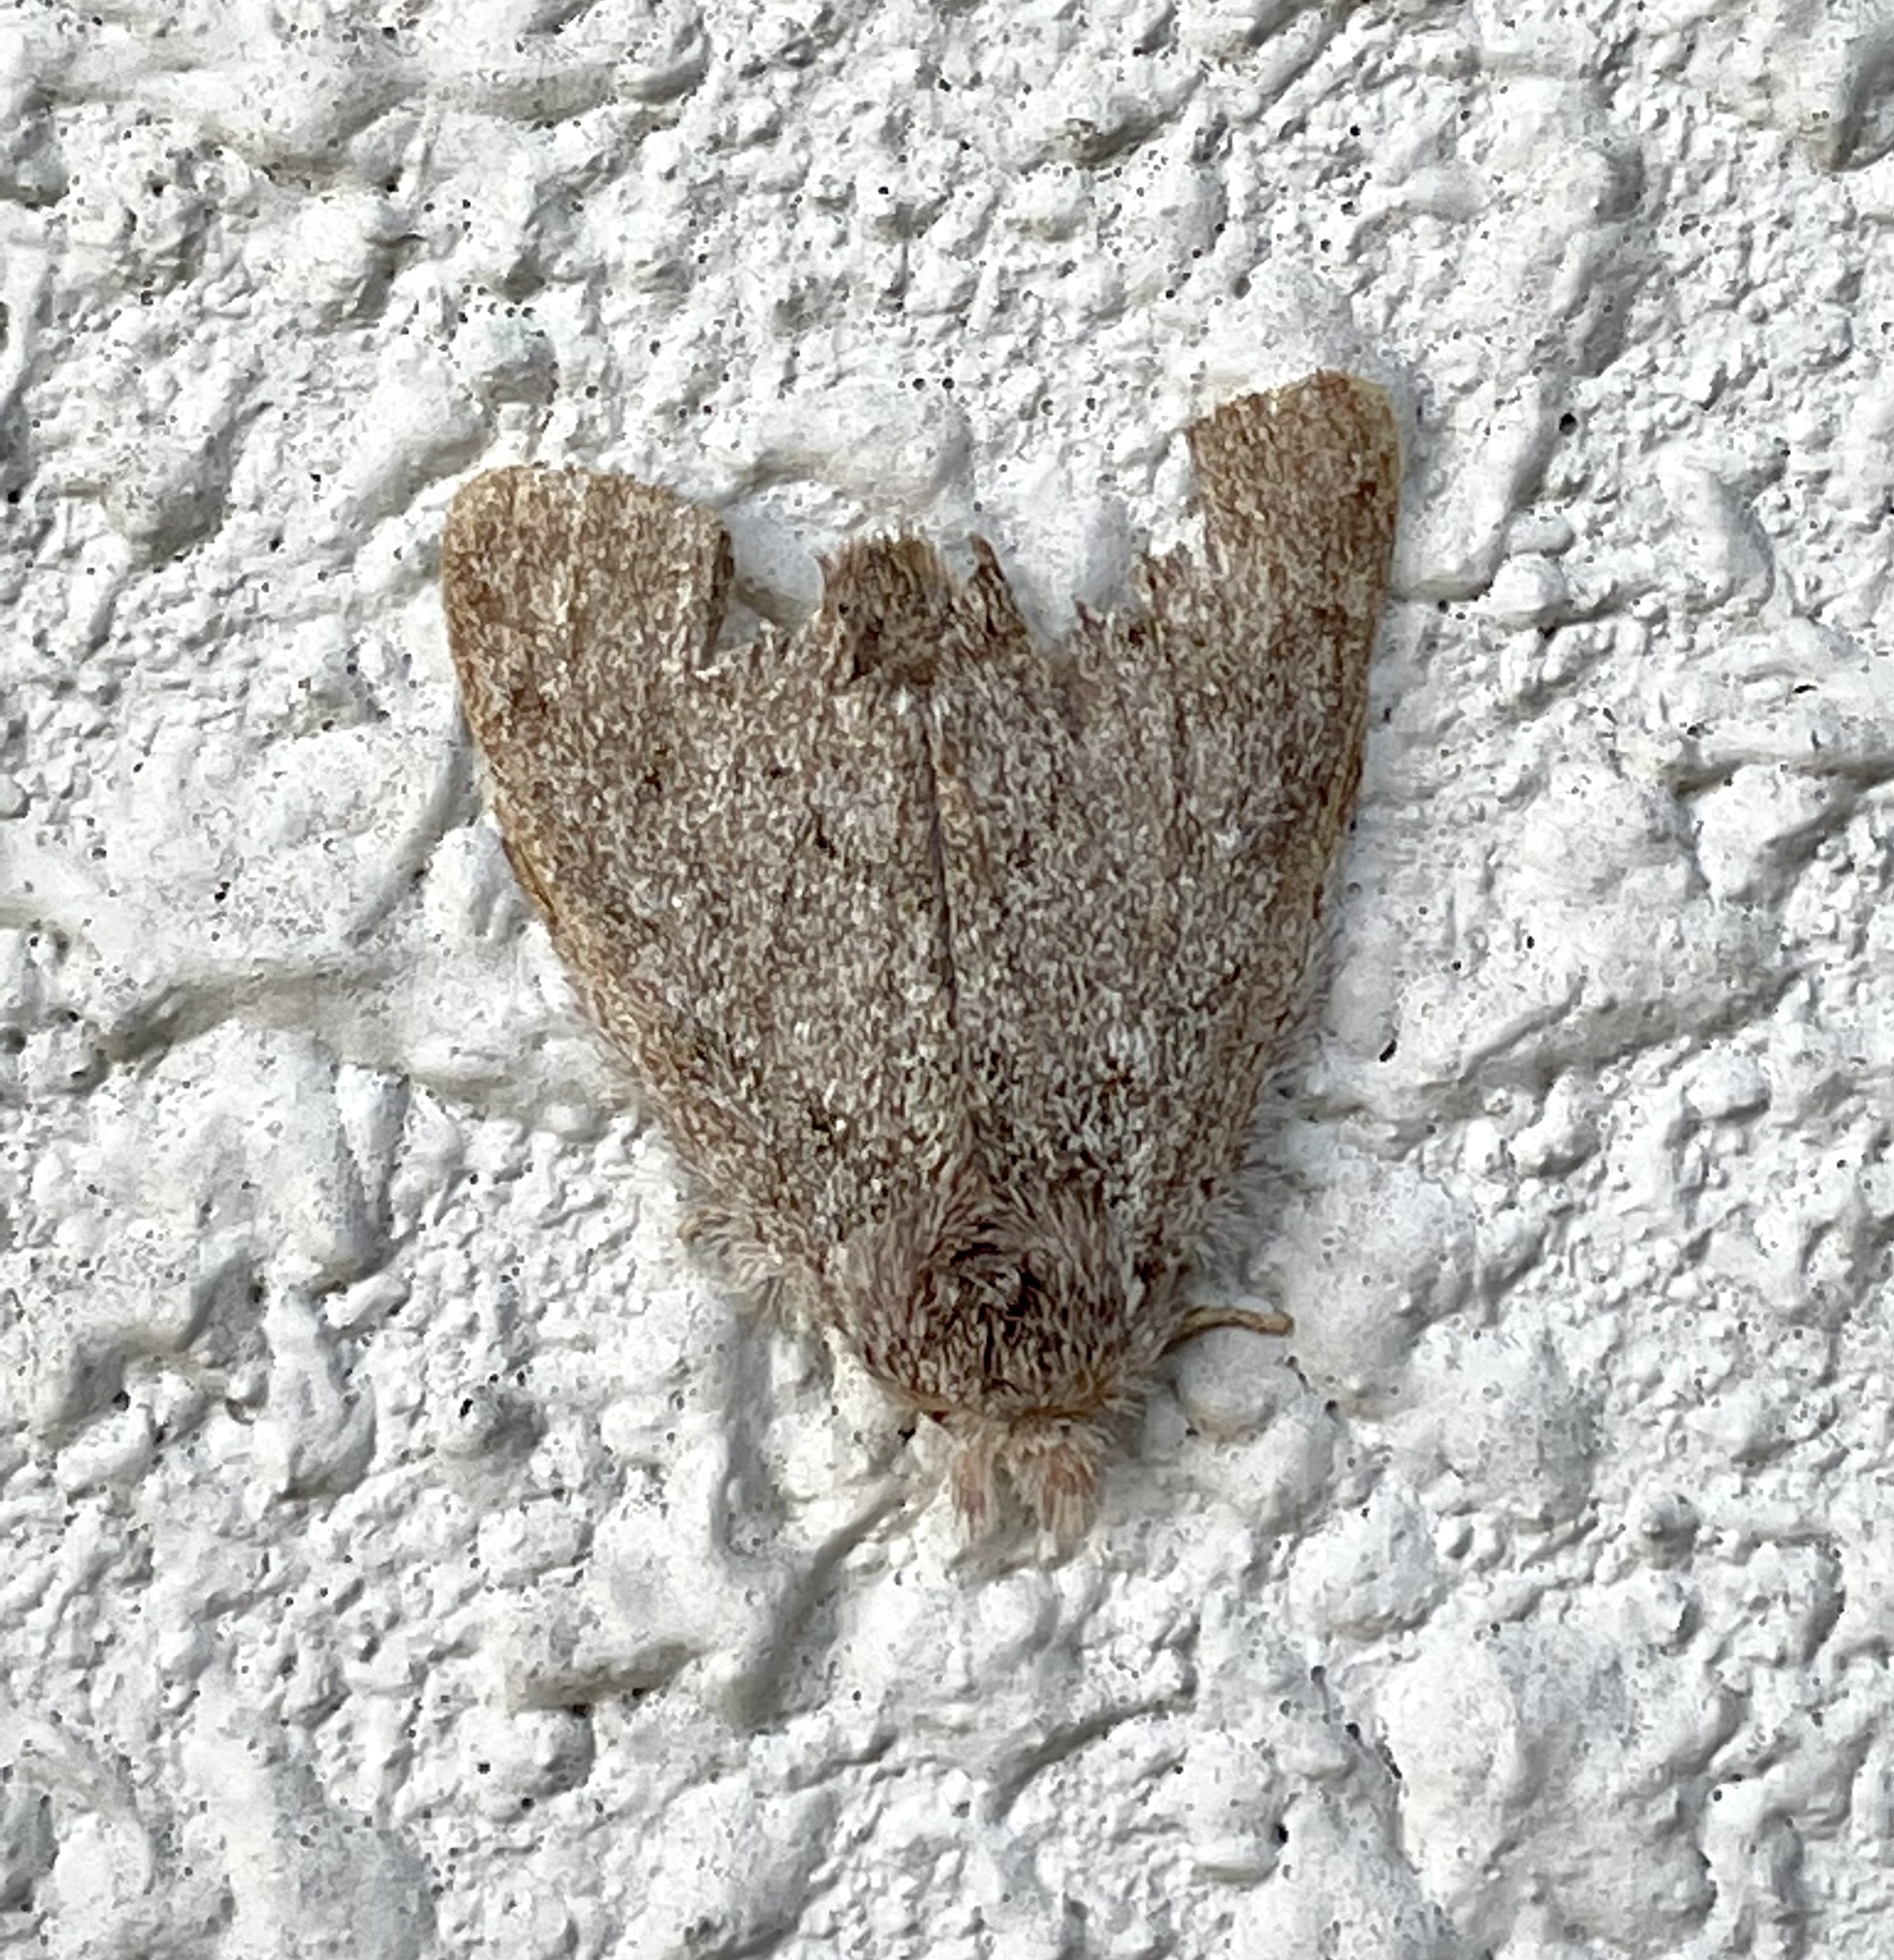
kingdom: Animalia
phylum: Arthropoda
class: Insecta
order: Lepidoptera
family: Notodontidae
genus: Syntypistis
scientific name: Syntypistis
